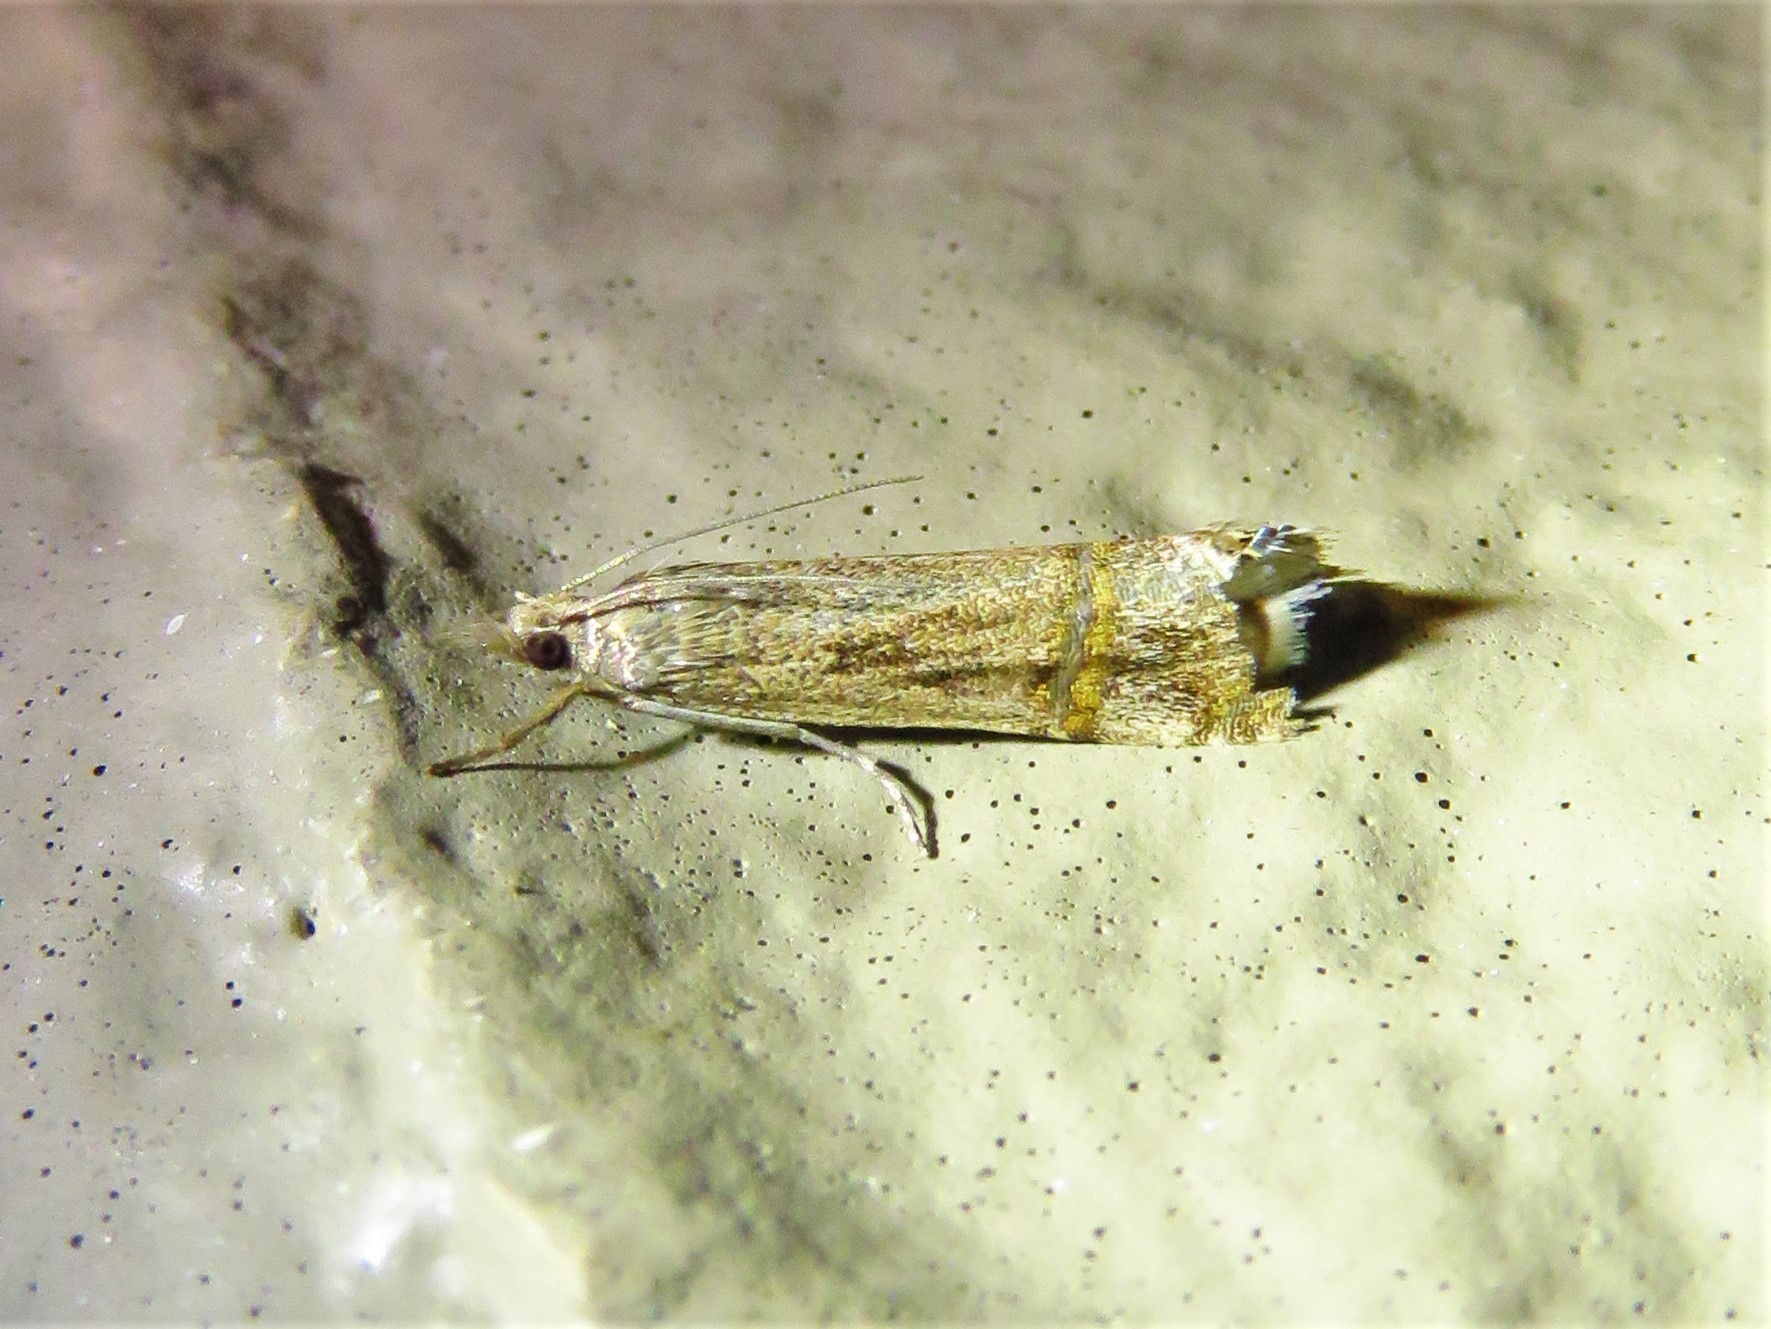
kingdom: Animalia
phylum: Arthropoda
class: Insecta
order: Lepidoptera
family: Crambidae
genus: Euchromius
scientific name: Euchromius ocellea
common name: Necklace veneer moth
